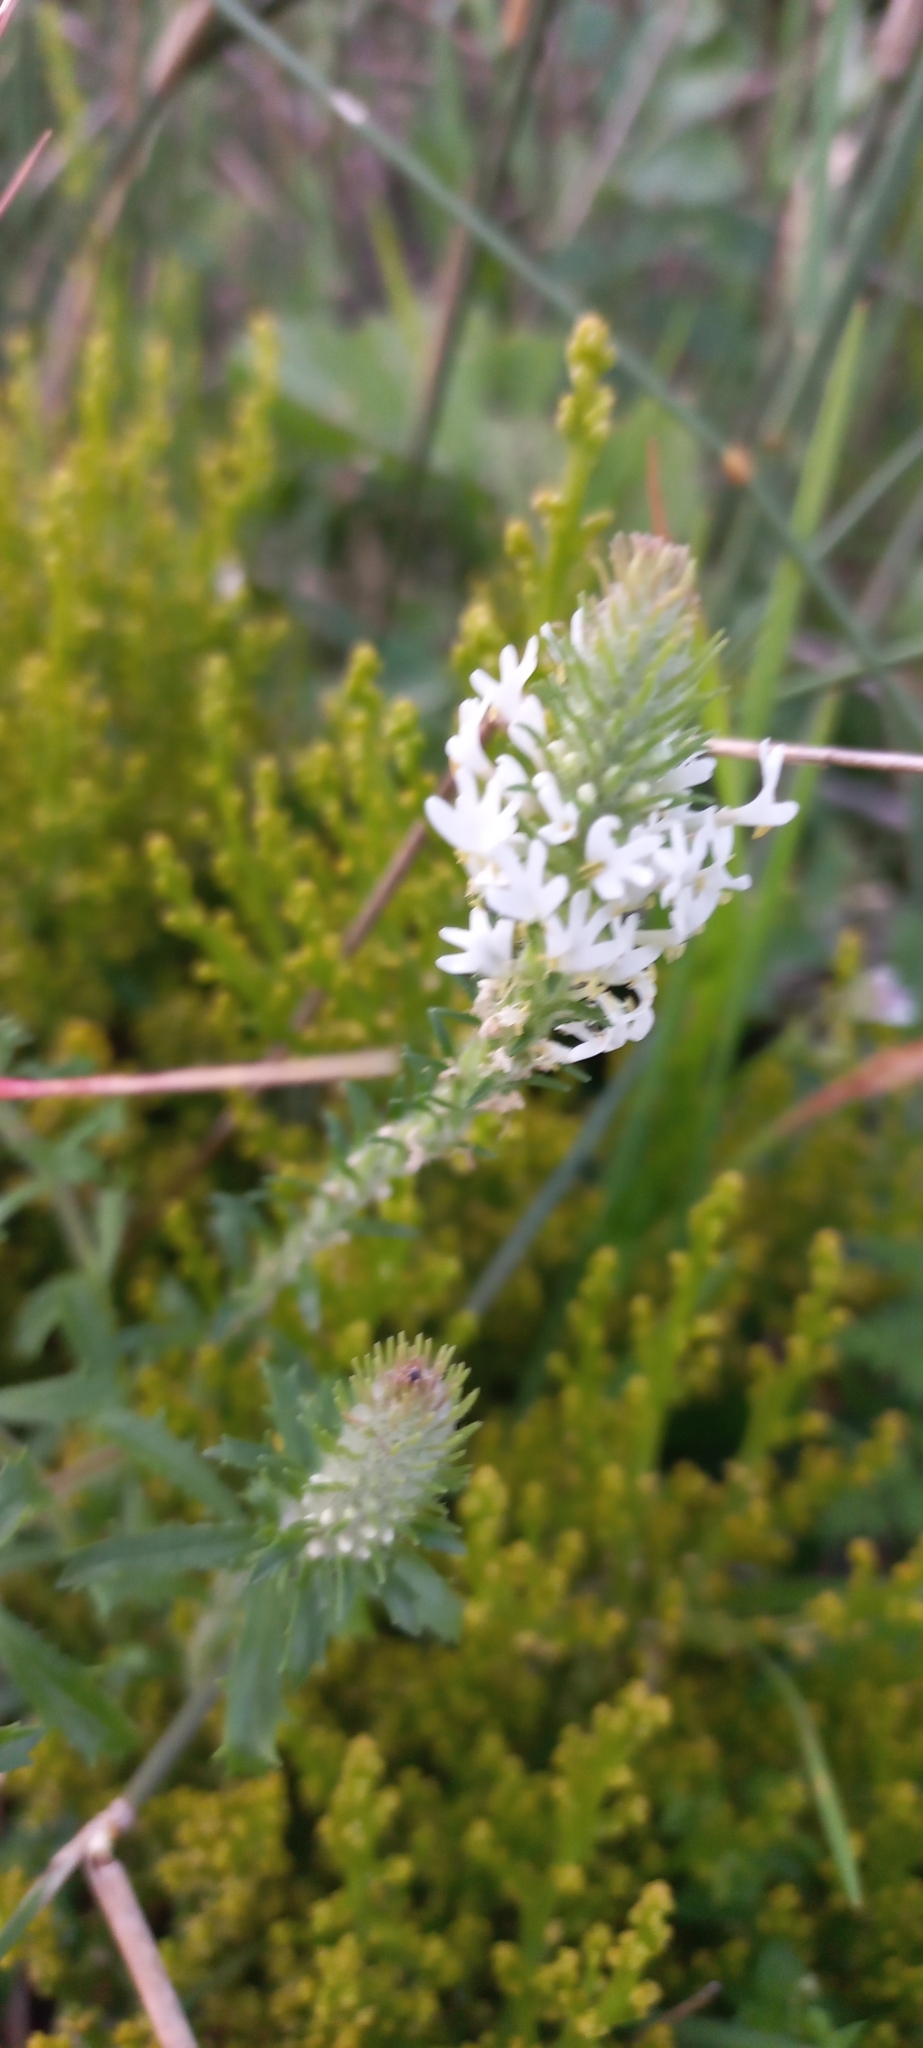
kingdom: Plantae
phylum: Tracheophyta
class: Magnoliopsida
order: Lamiales
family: Scrophulariaceae
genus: Dischisma
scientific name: Dischisma ciliatum
